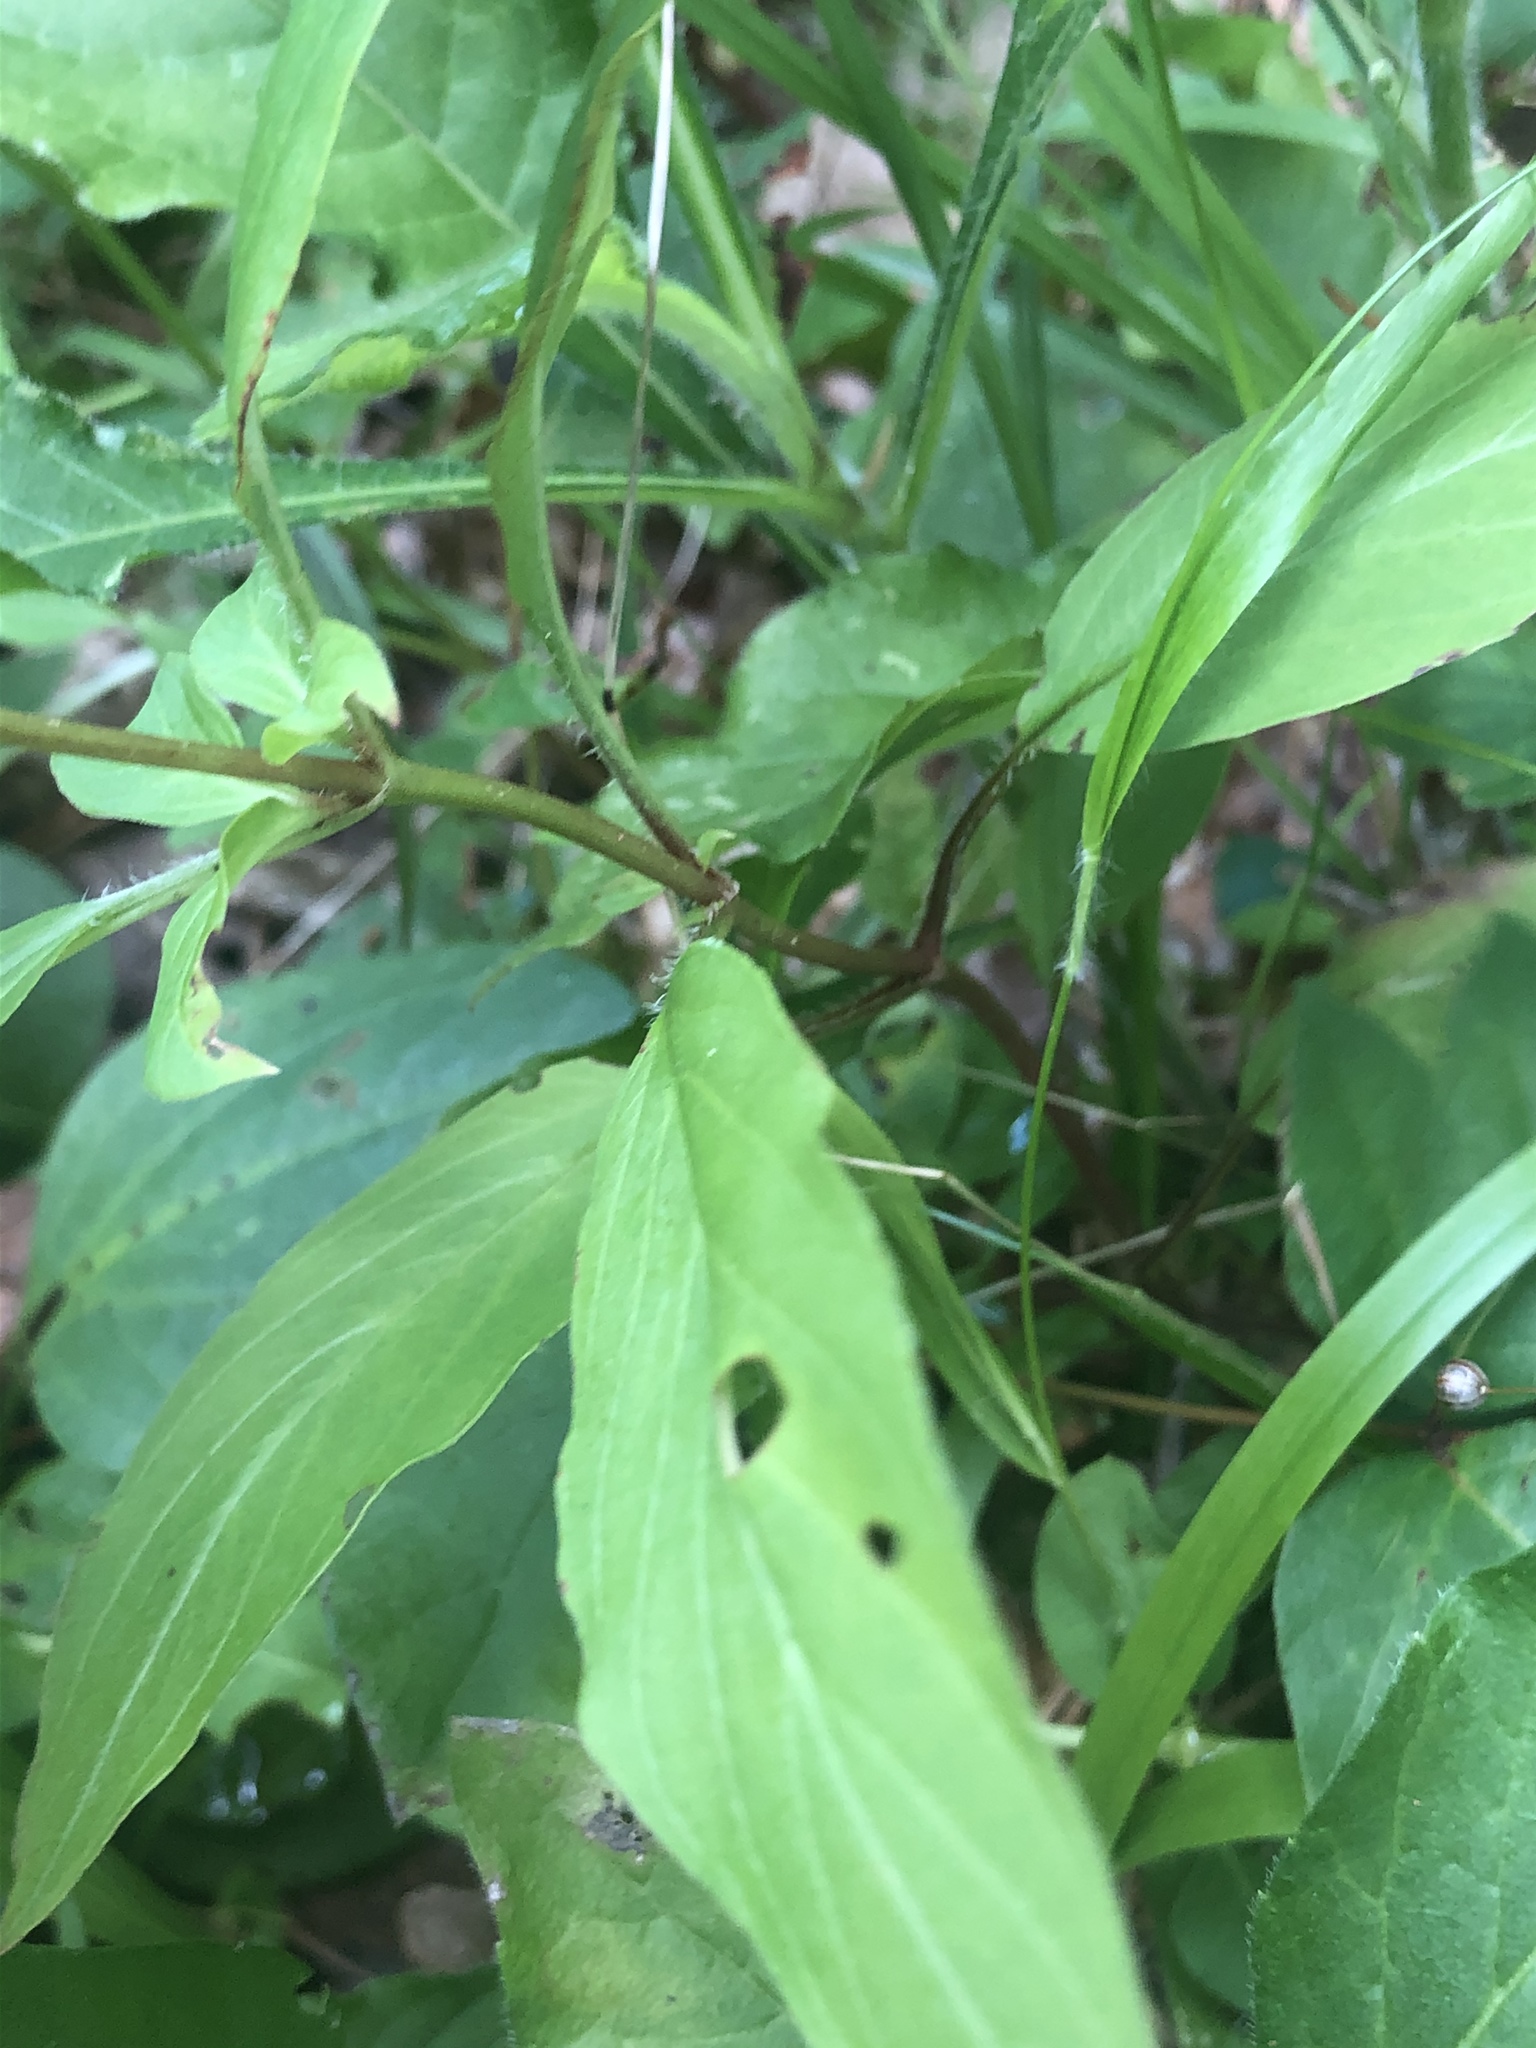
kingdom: Plantae
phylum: Tracheophyta
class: Magnoliopsida
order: Ericales
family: Primulaceae
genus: Lysimachia
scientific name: Lysimachia ciliata
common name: Fringed loosestrife
